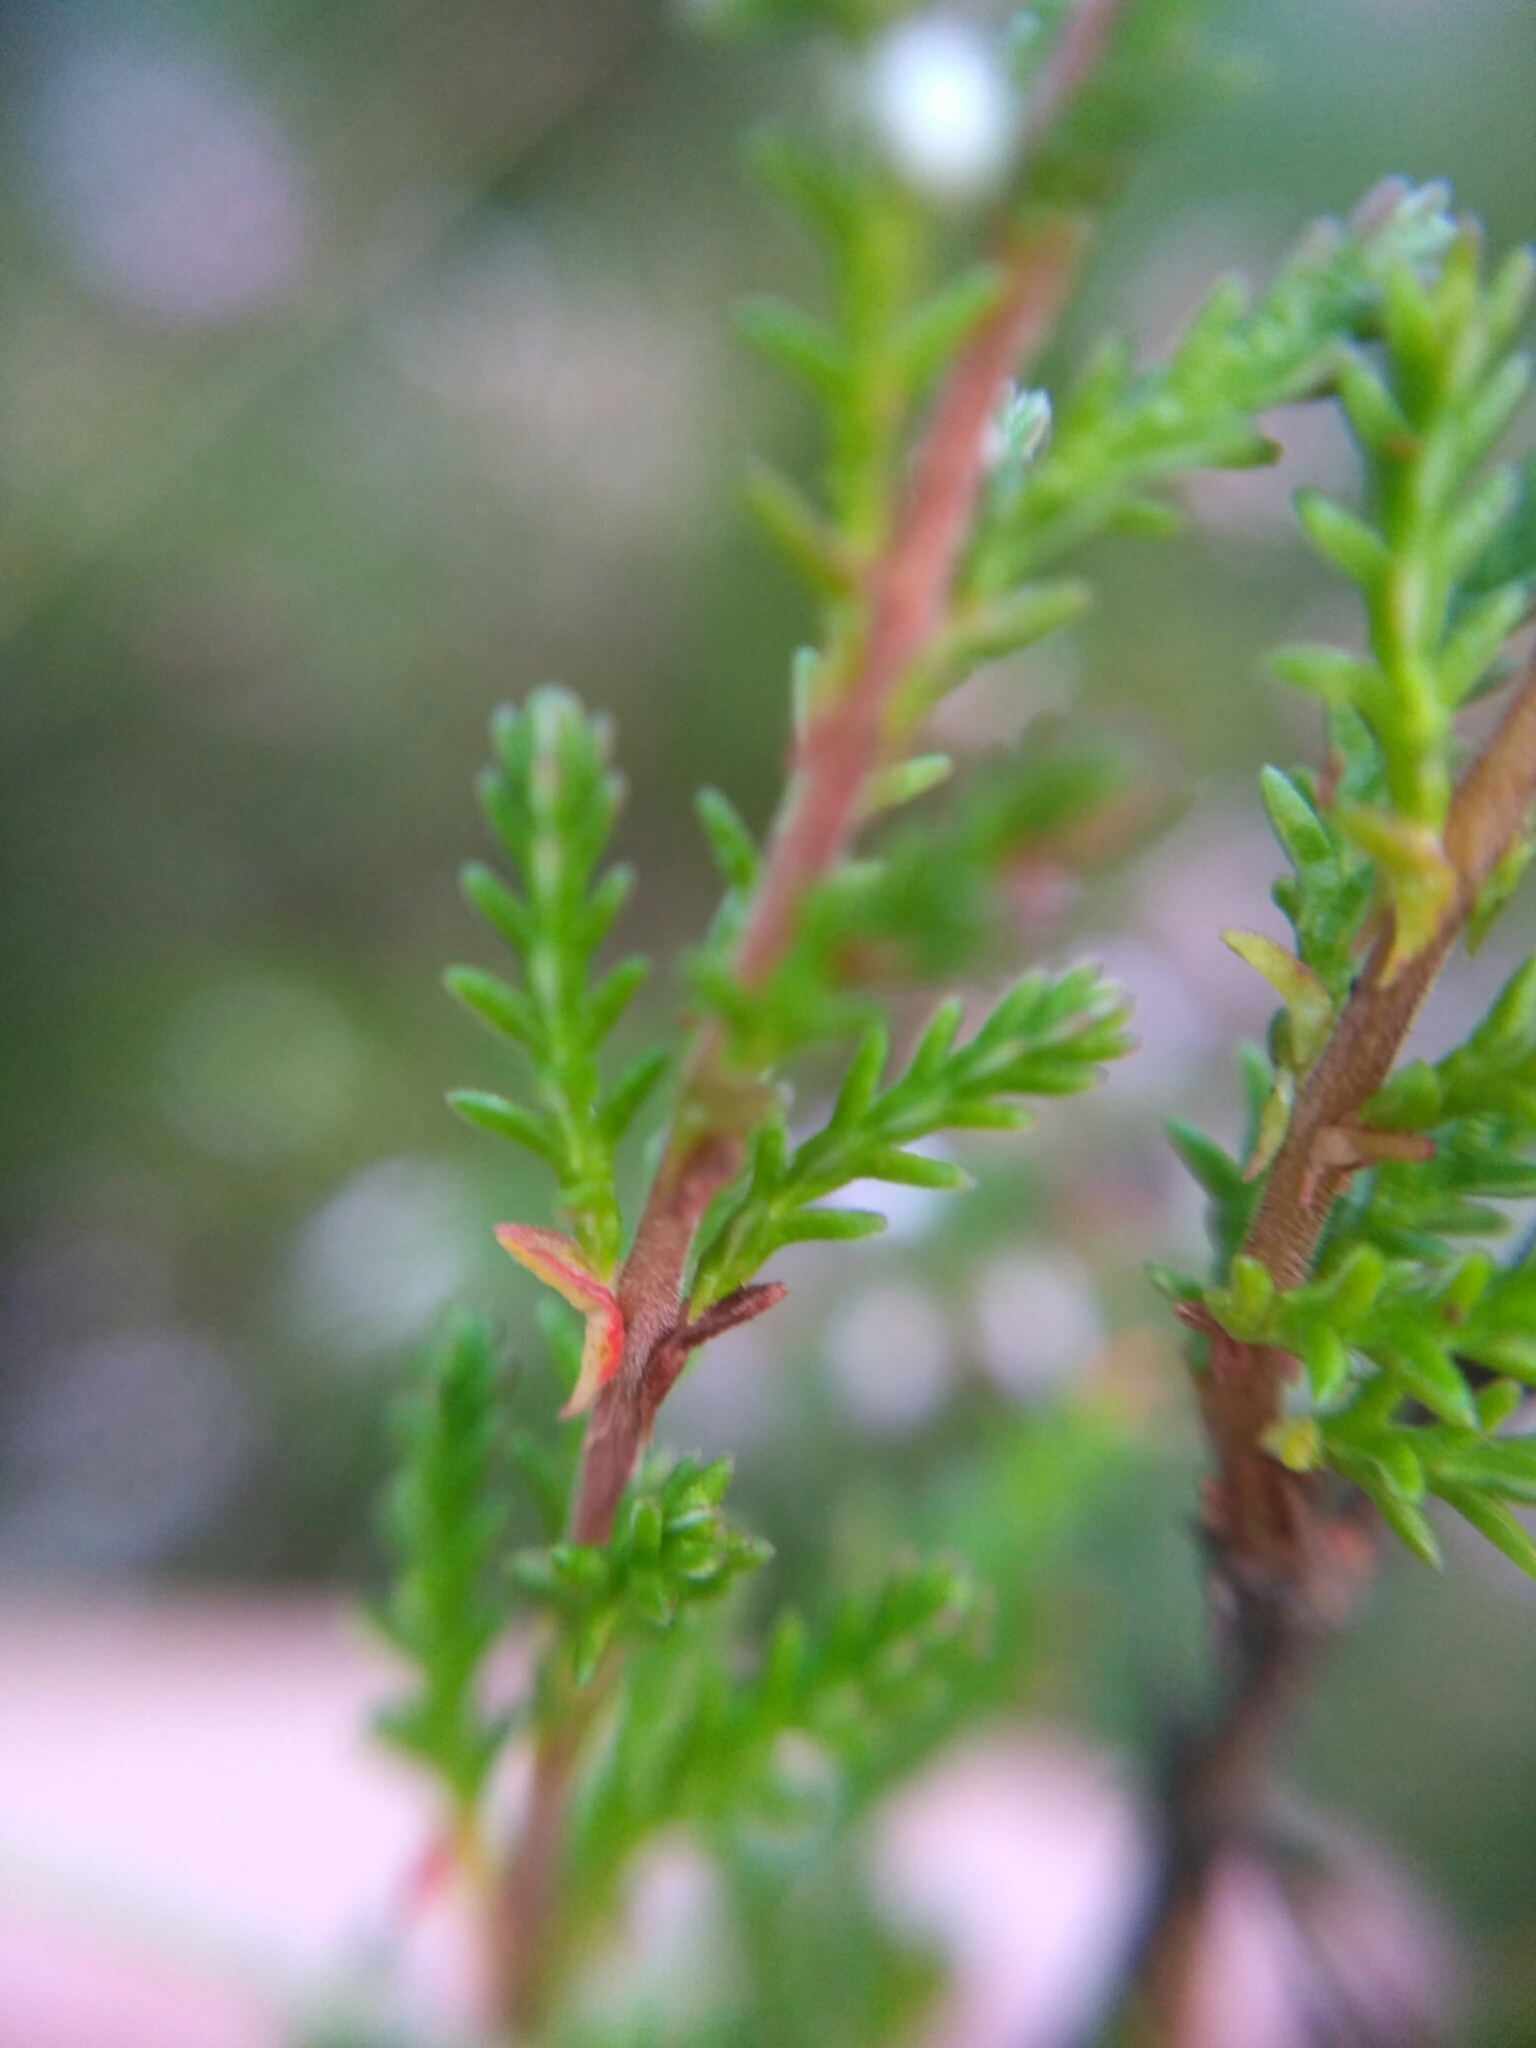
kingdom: Plantae
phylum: Tracheophyta
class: Magnoliopsida
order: Ericales
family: Ericaceae
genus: Calluna
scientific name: Calluna vulgaris
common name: Heather
